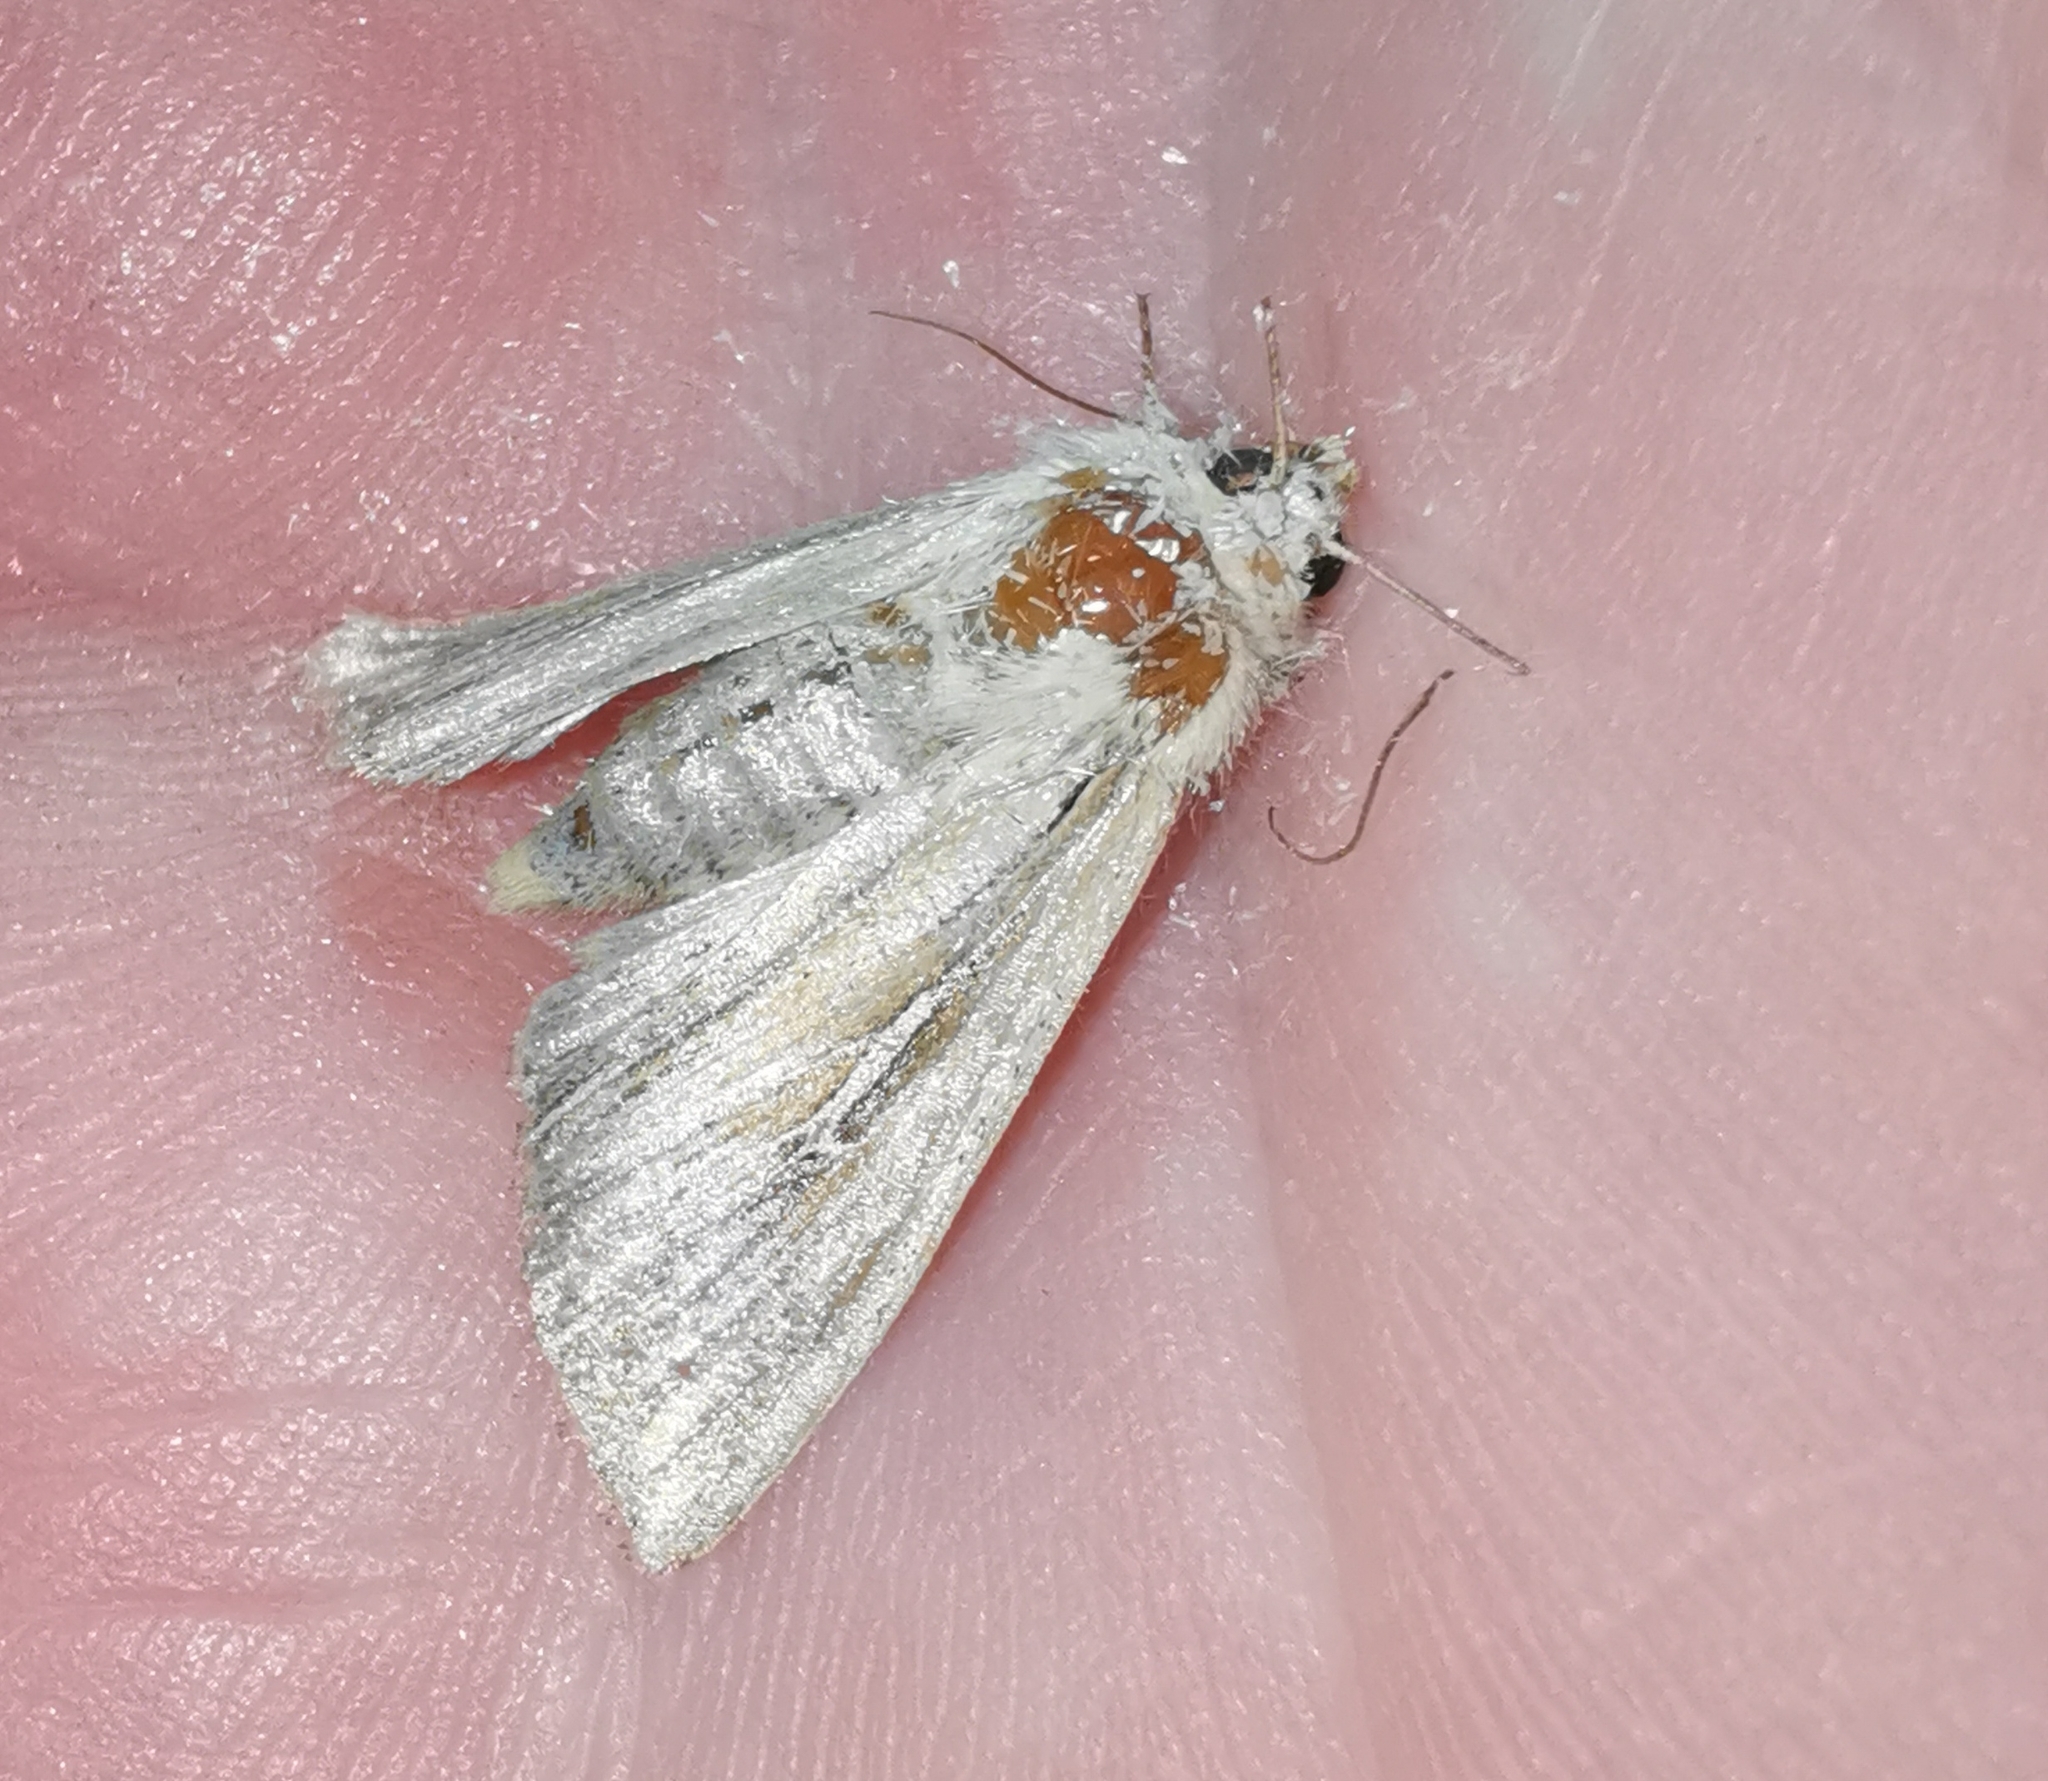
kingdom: Animalia
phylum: Arthropoda
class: Insecta
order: Lepidoptera
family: Noctuidae
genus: Mythimna
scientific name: Mythimna l-album
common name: L-album wainscot
